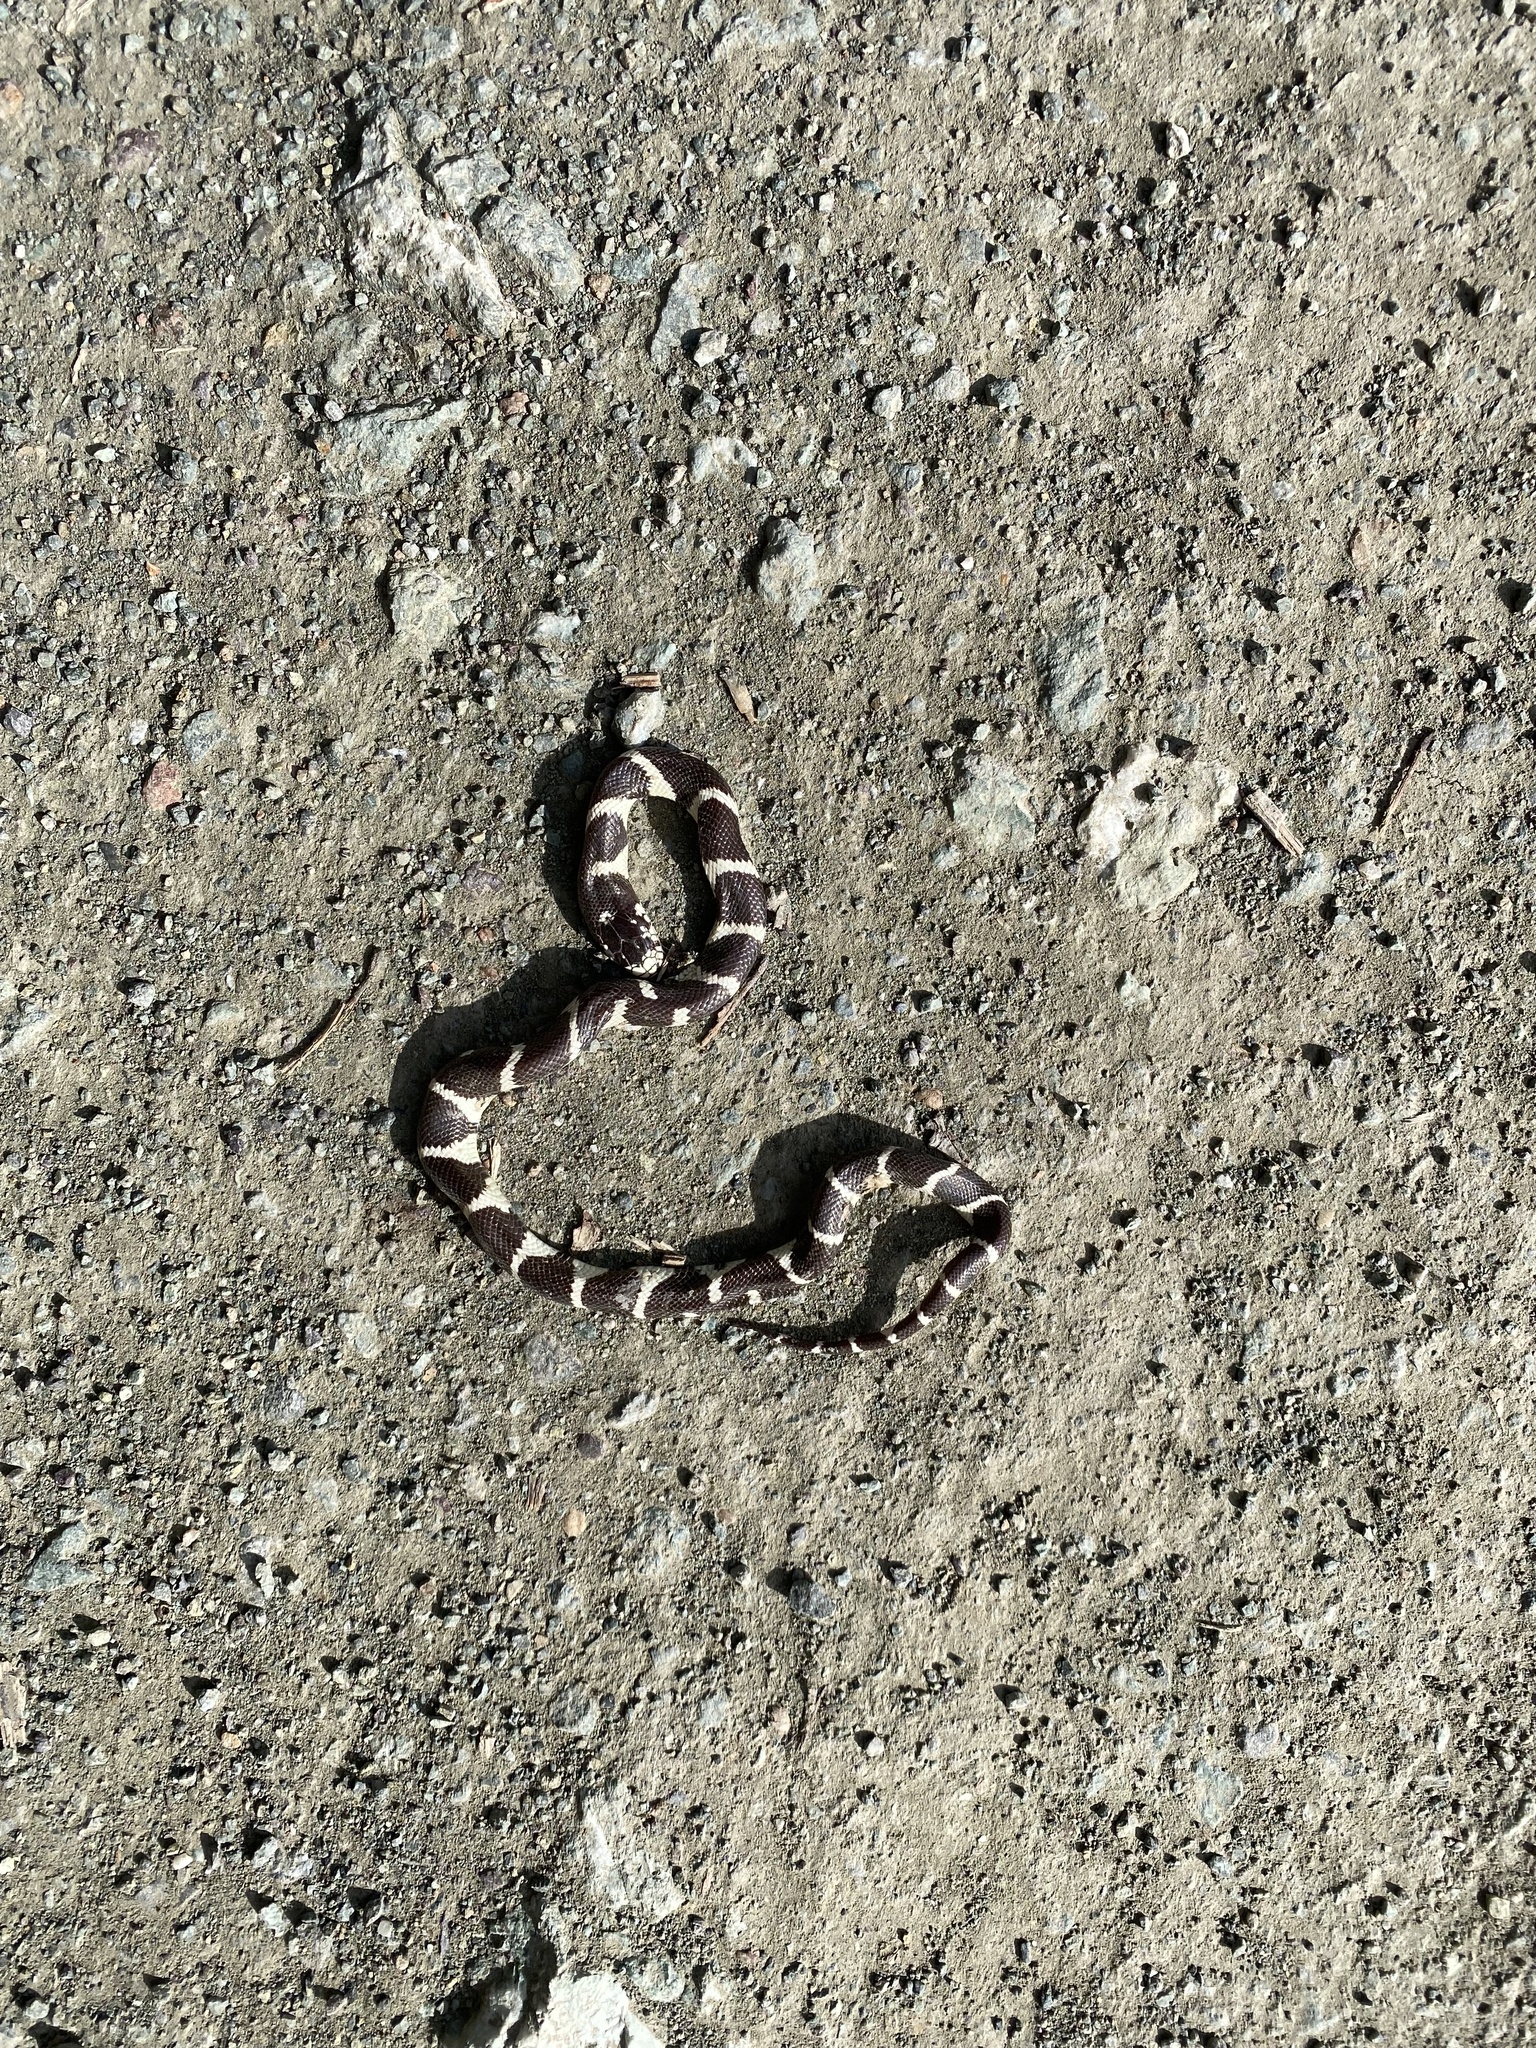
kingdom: Animalia
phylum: Chordata
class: Squamata
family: Colubridae
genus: Lampropeltis
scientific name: Lampropeltis californiae
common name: California kingsnake
